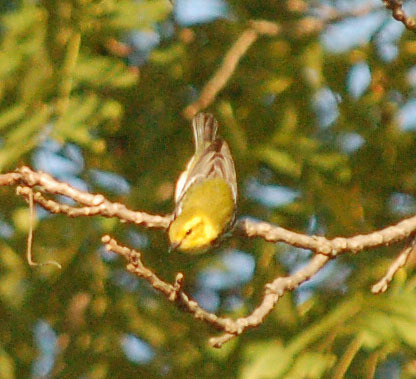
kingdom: Animalia
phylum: Chordata
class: Aves
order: Passeriformes
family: Parulidae
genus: Setophaga
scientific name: Setophaga virens
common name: Black-throated green warbler
